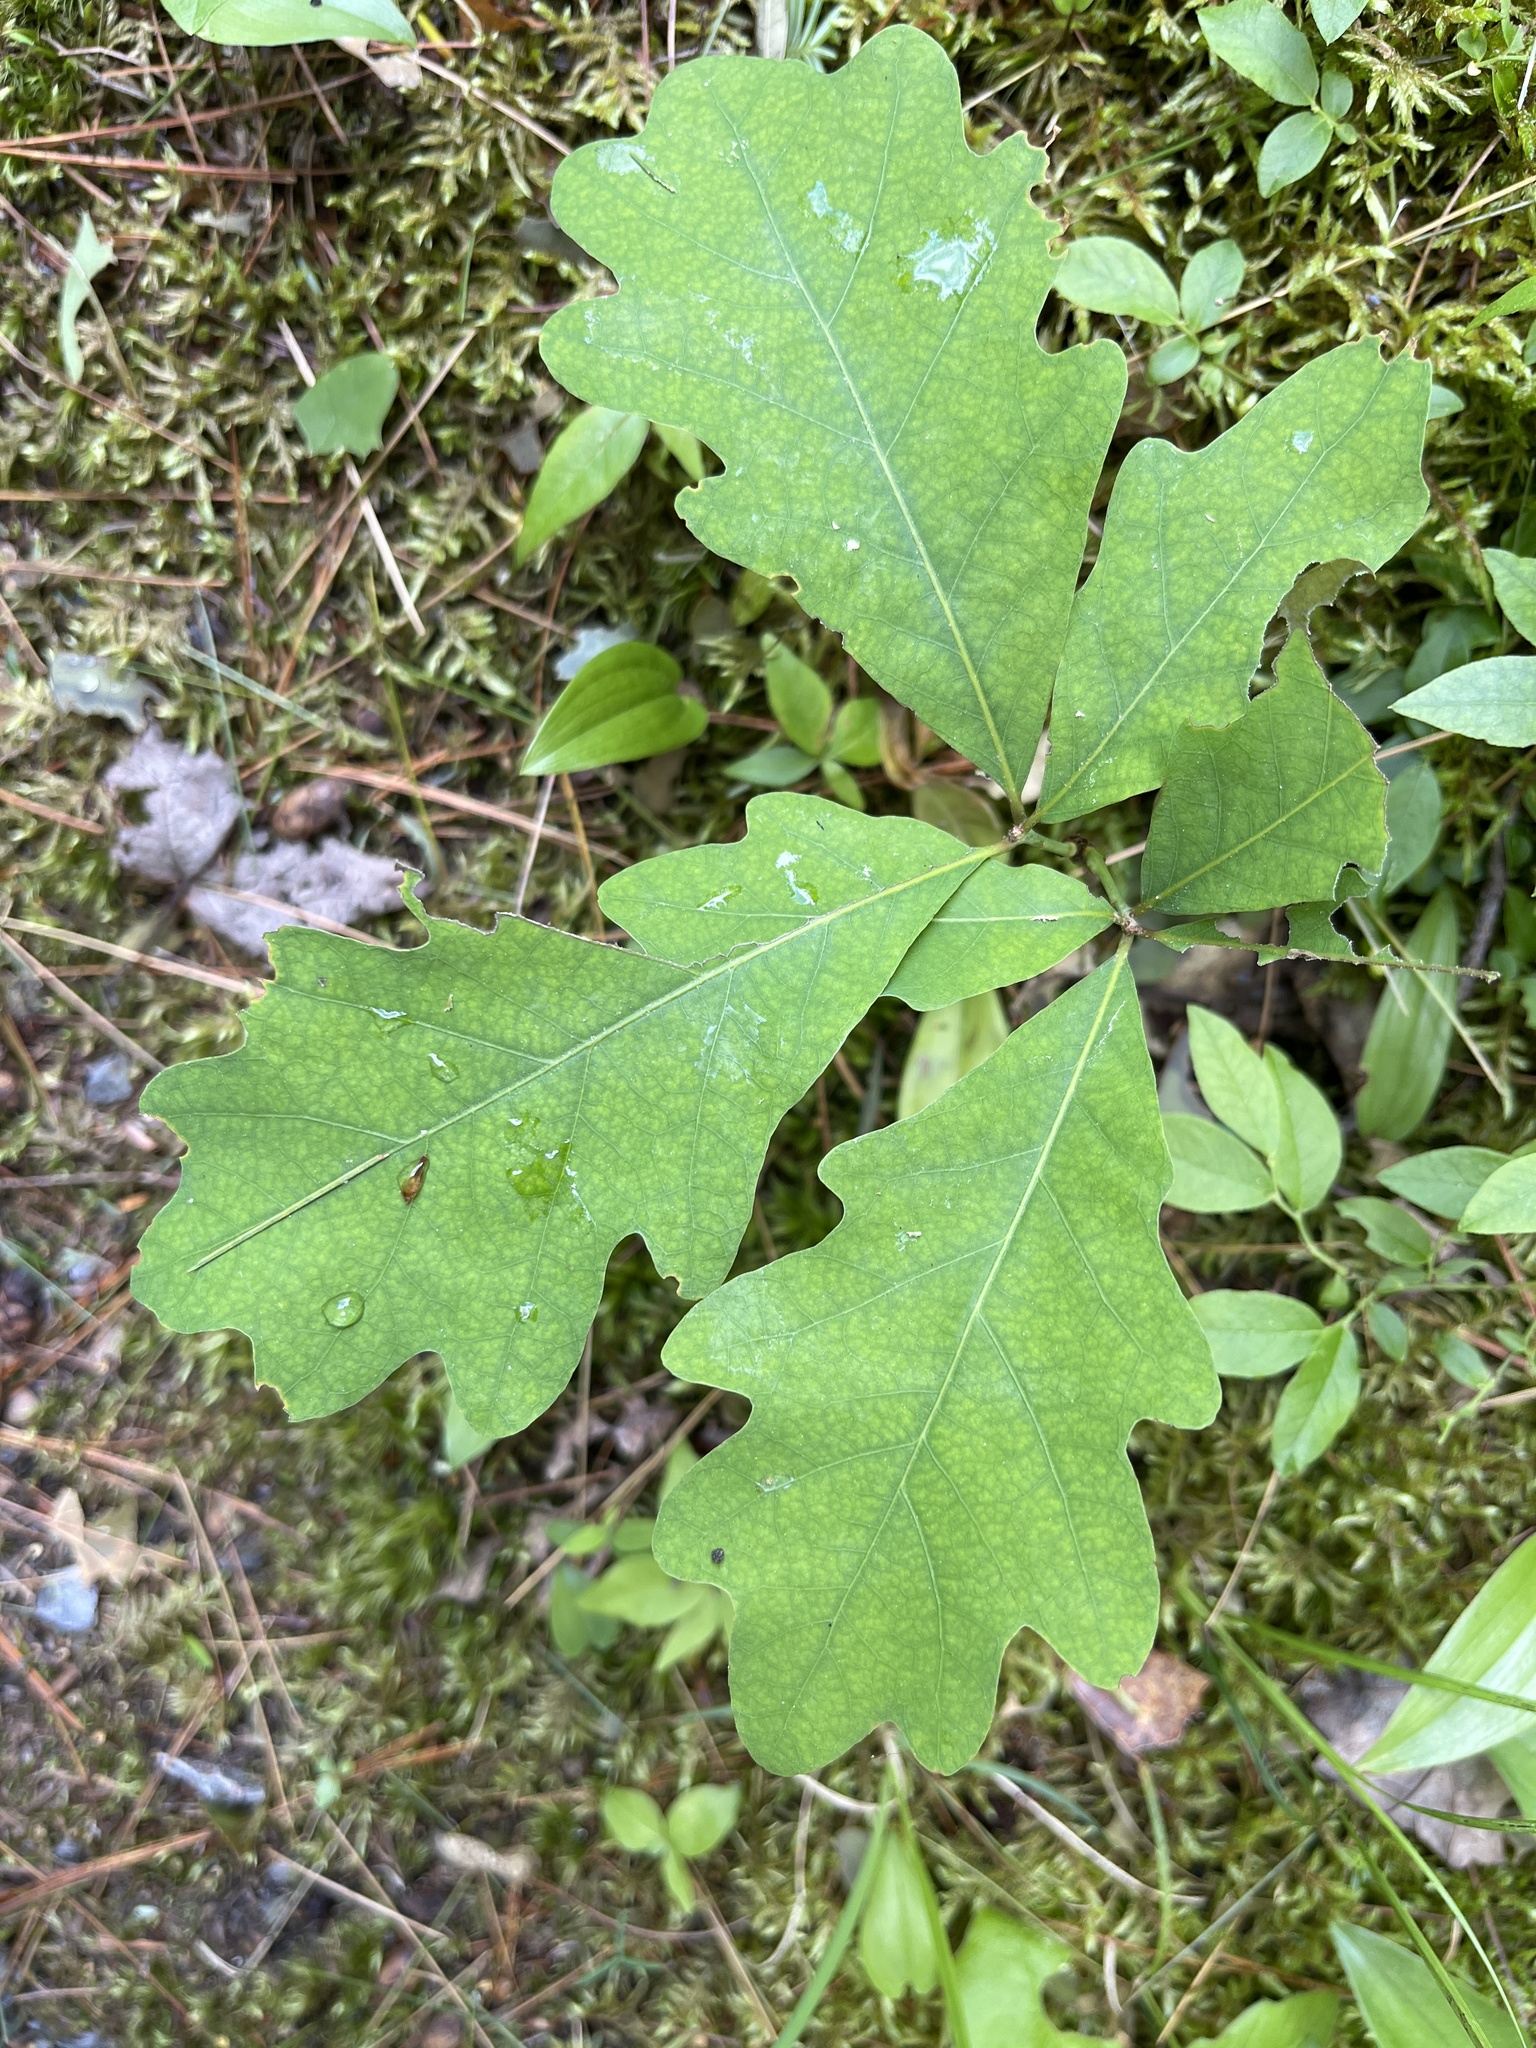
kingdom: Plantae
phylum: Tracheophyta
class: Magnoliopsida
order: Fagales
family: Fagaceae
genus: Quercus
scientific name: Quercus alba
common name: White oak
